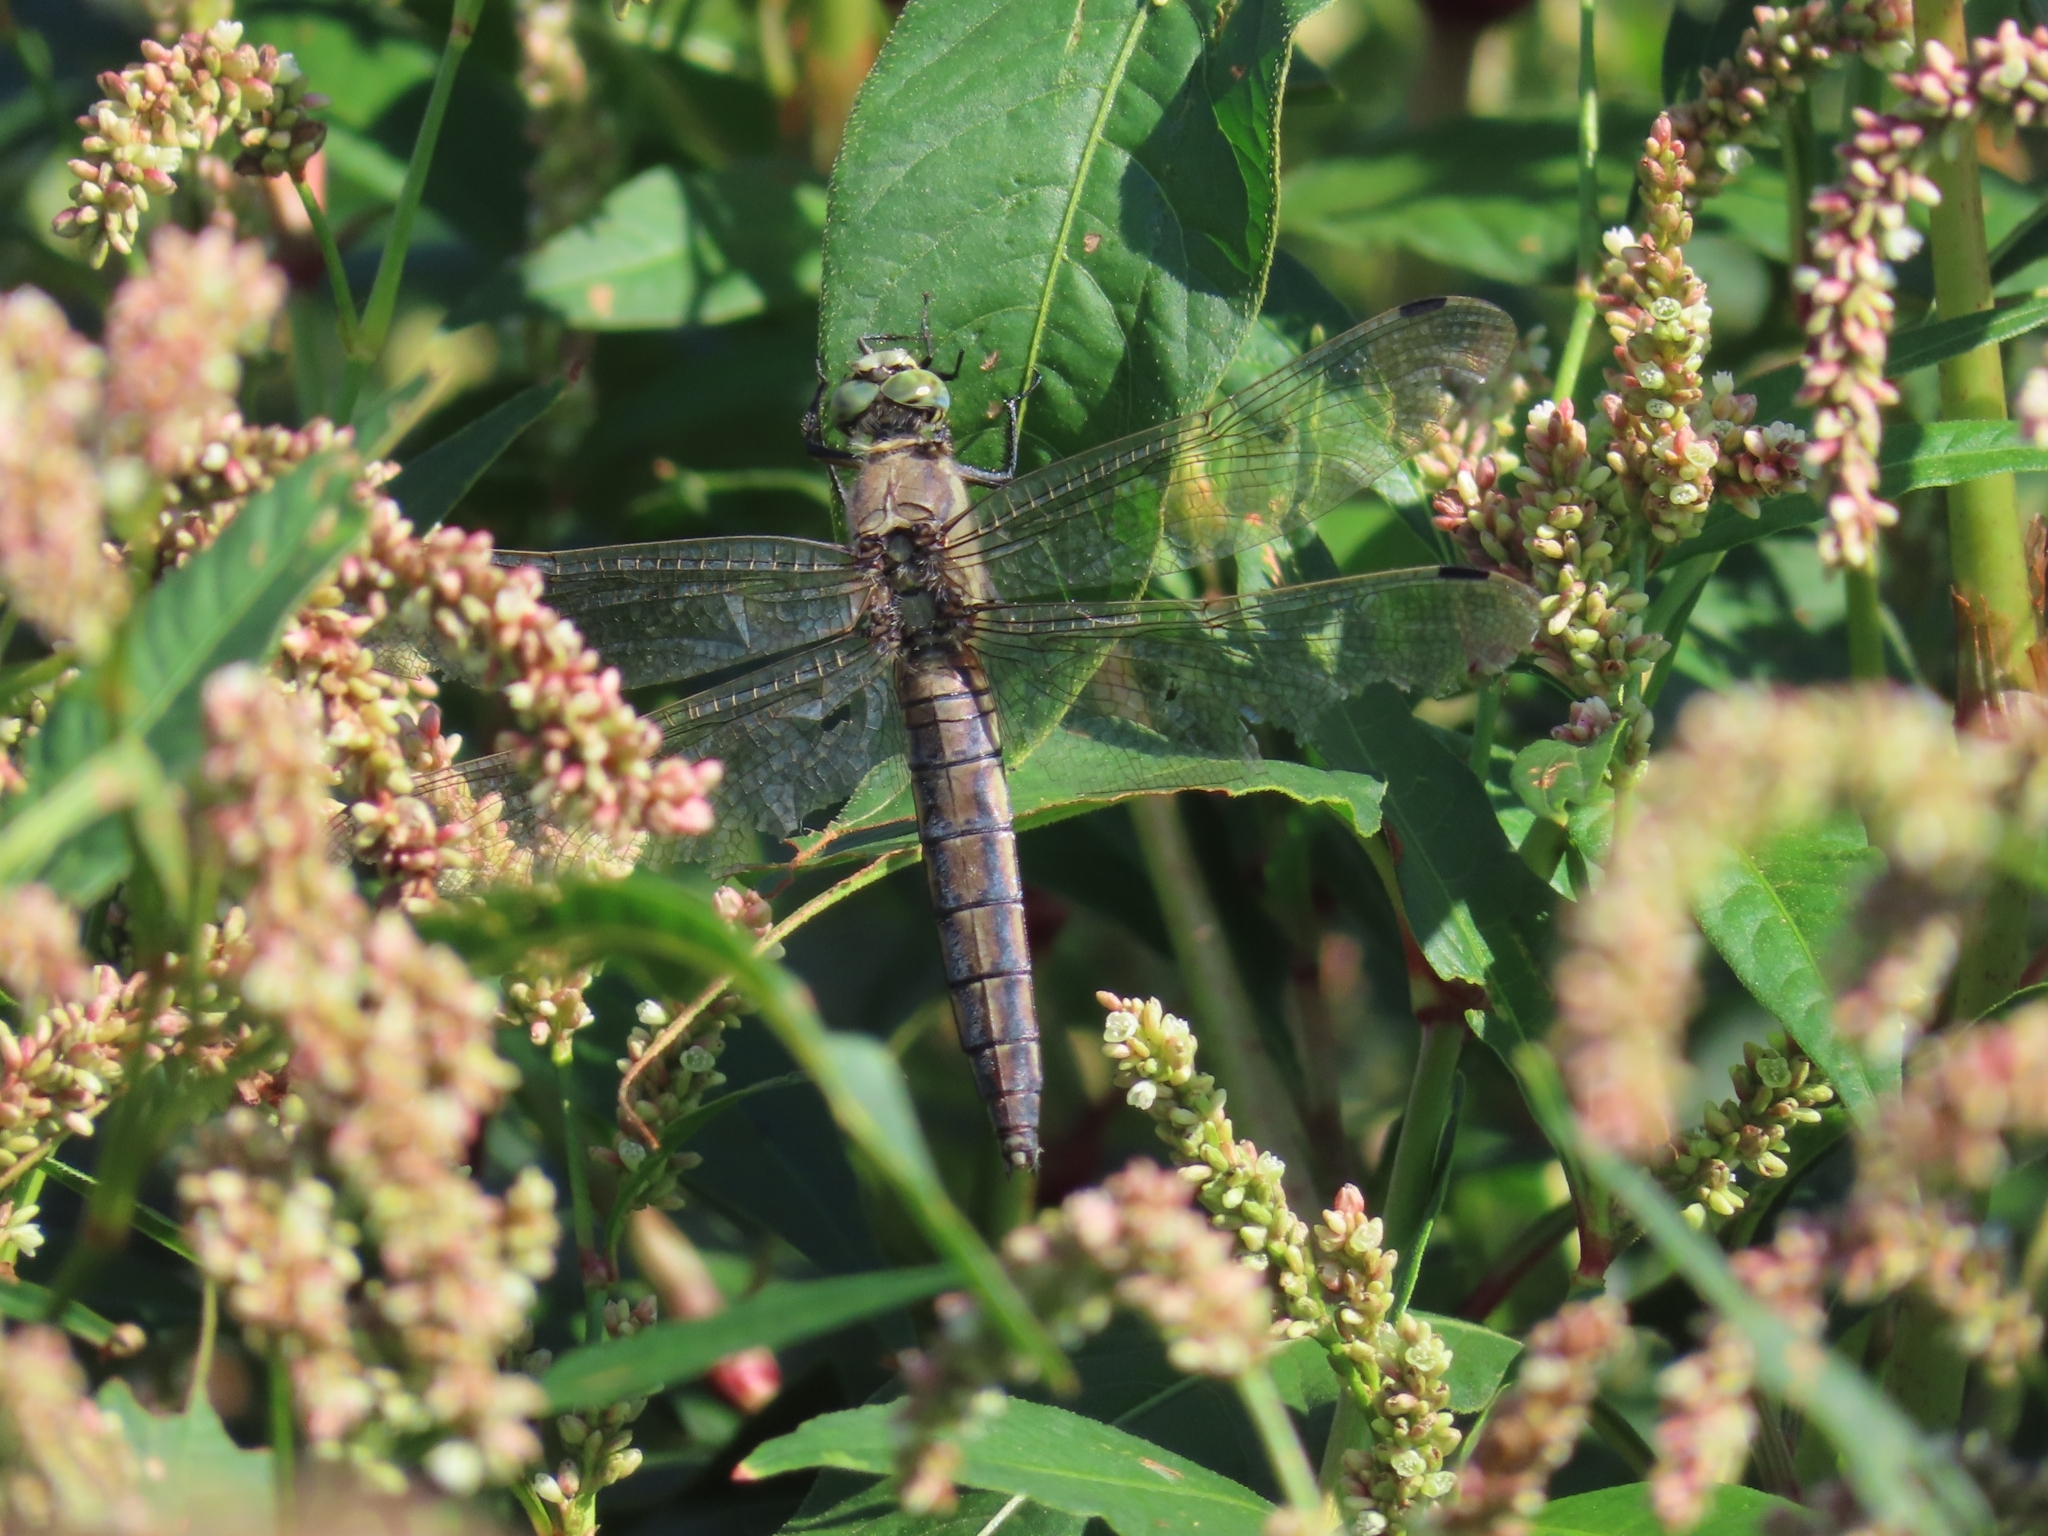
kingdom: Animalia
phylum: Arthropoda
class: Insecta
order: Odonata
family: Libellulidae
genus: Orthetrum
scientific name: Orthetrum cancellatum
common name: Black-tailed skimmer
